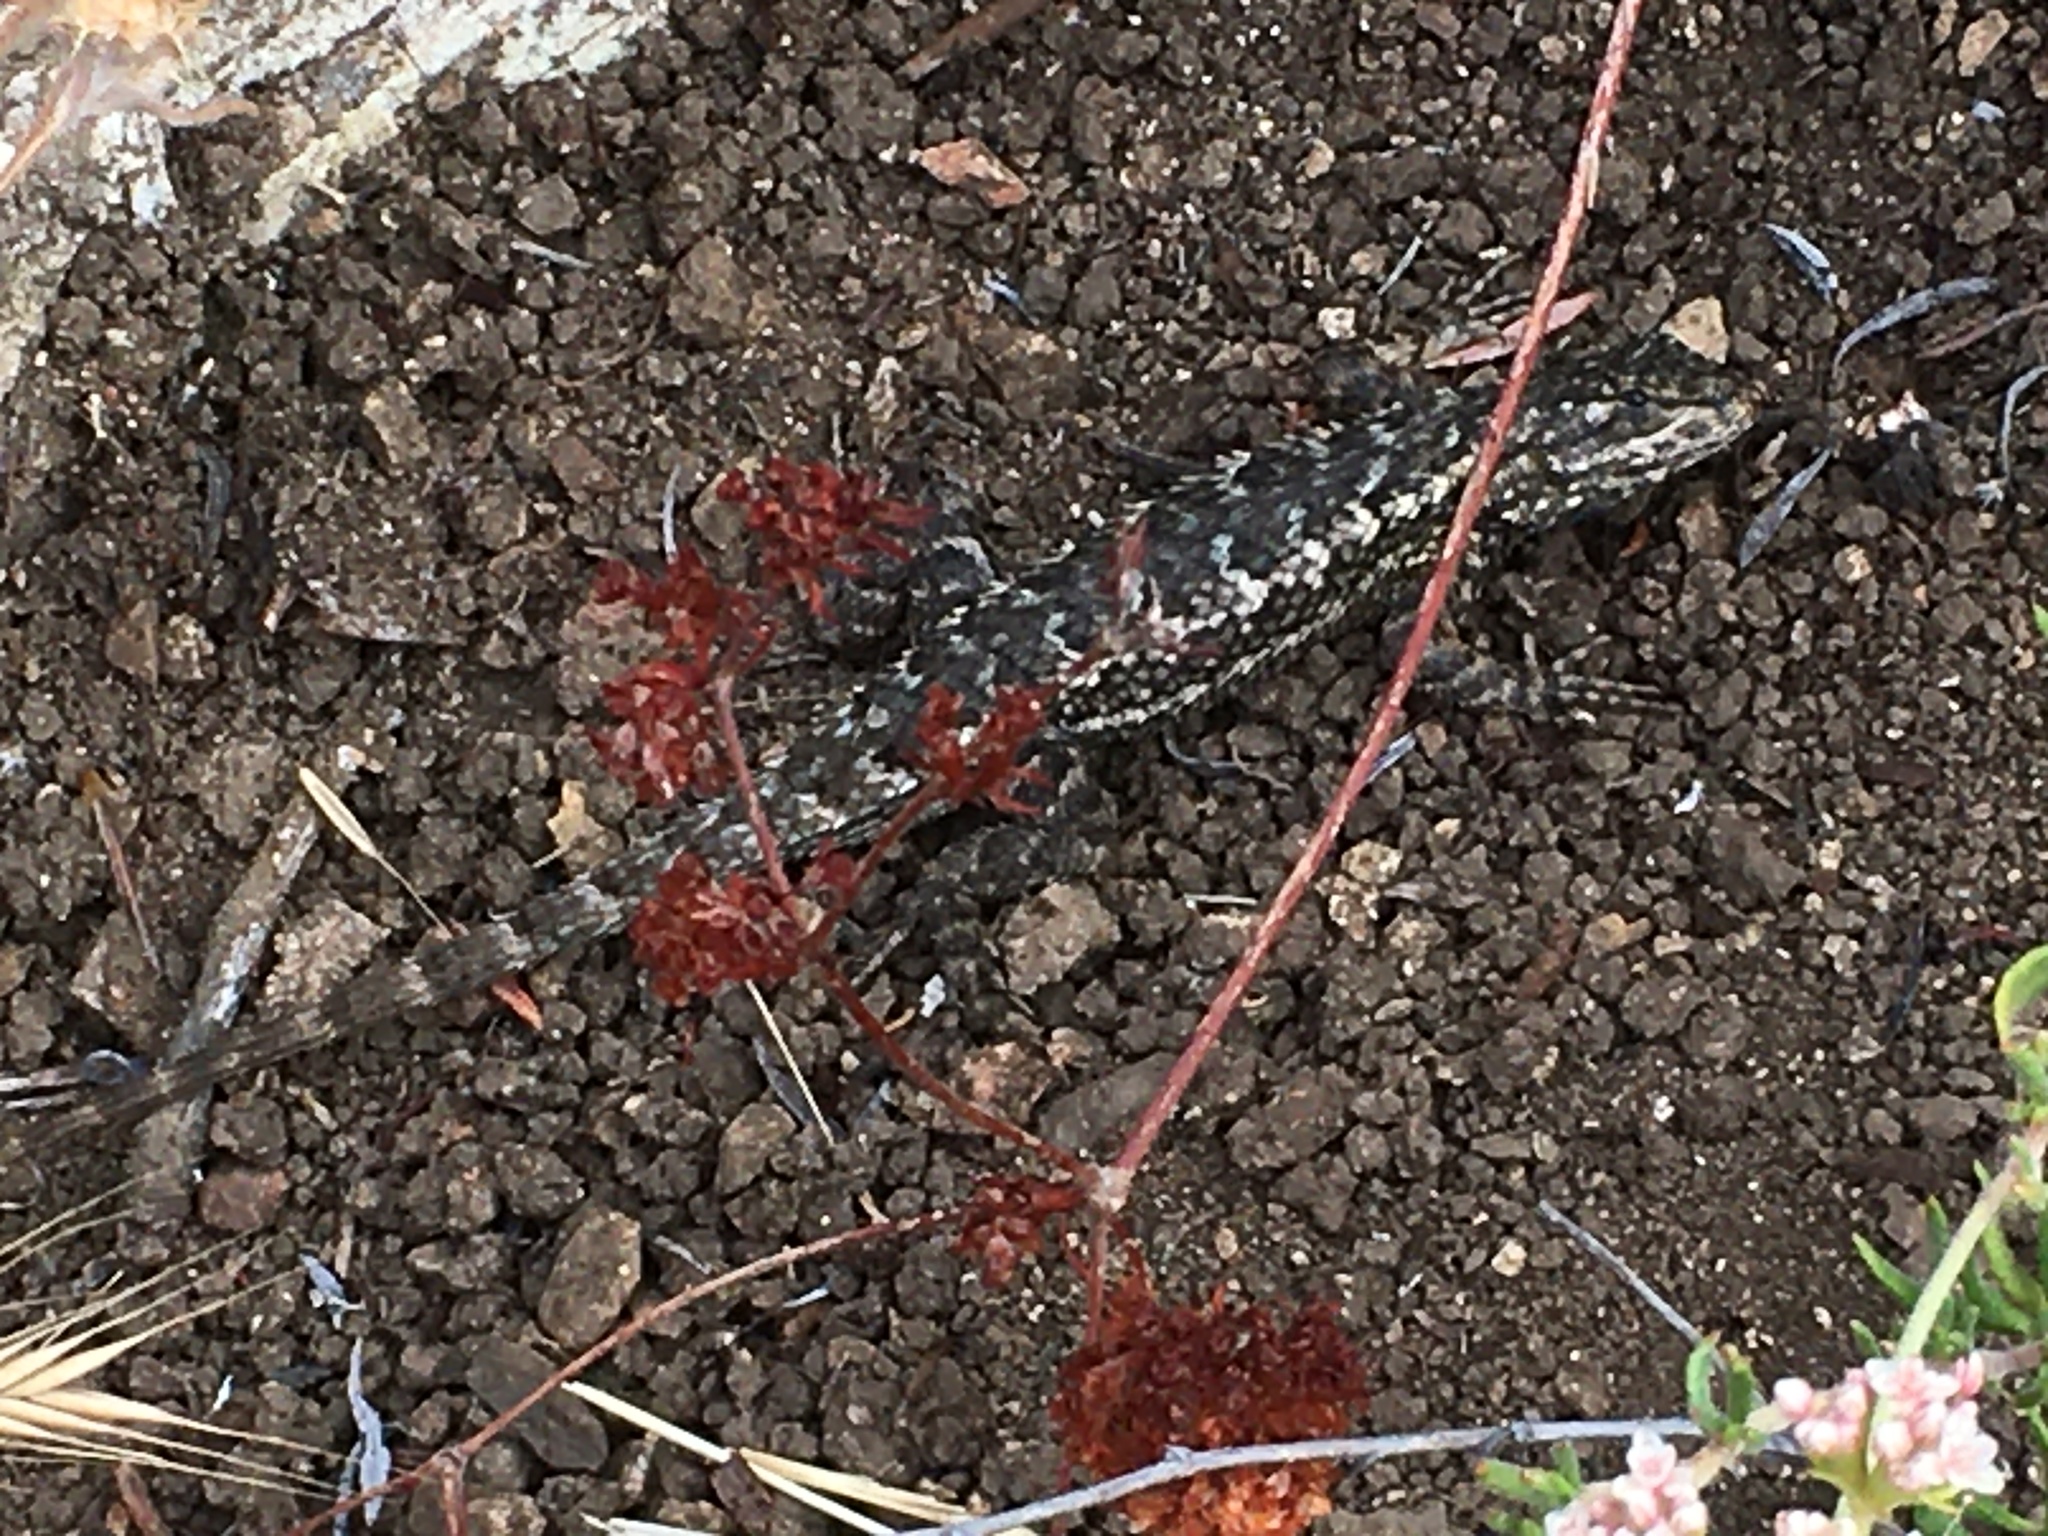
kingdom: Animalia
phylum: Chordata
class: Squamata
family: Phrynosomatidae
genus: Sceloporus
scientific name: Sceloporus occidentalis
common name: Western fence lizard
